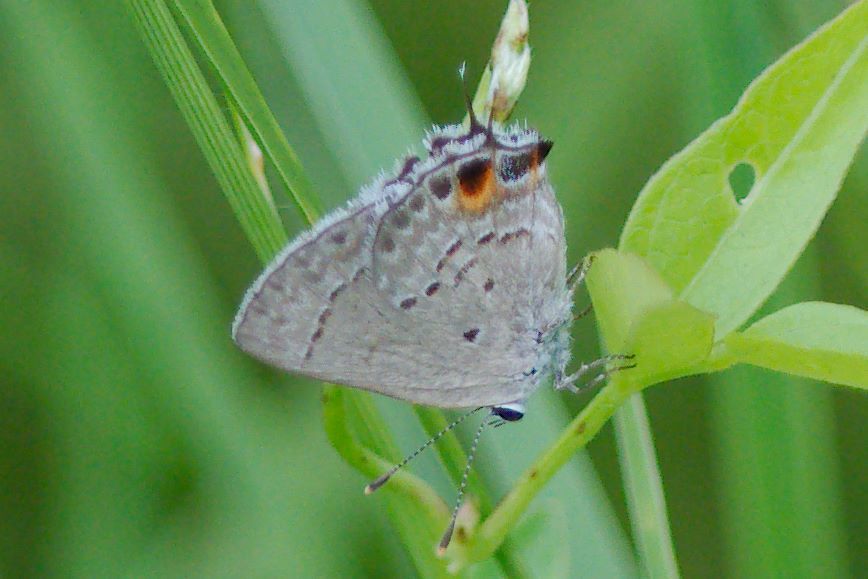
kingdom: Animalia
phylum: Arthropoda
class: Insecta
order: Lepidoptera
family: Lycaenidae
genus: Callicista
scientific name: Callicista columella
